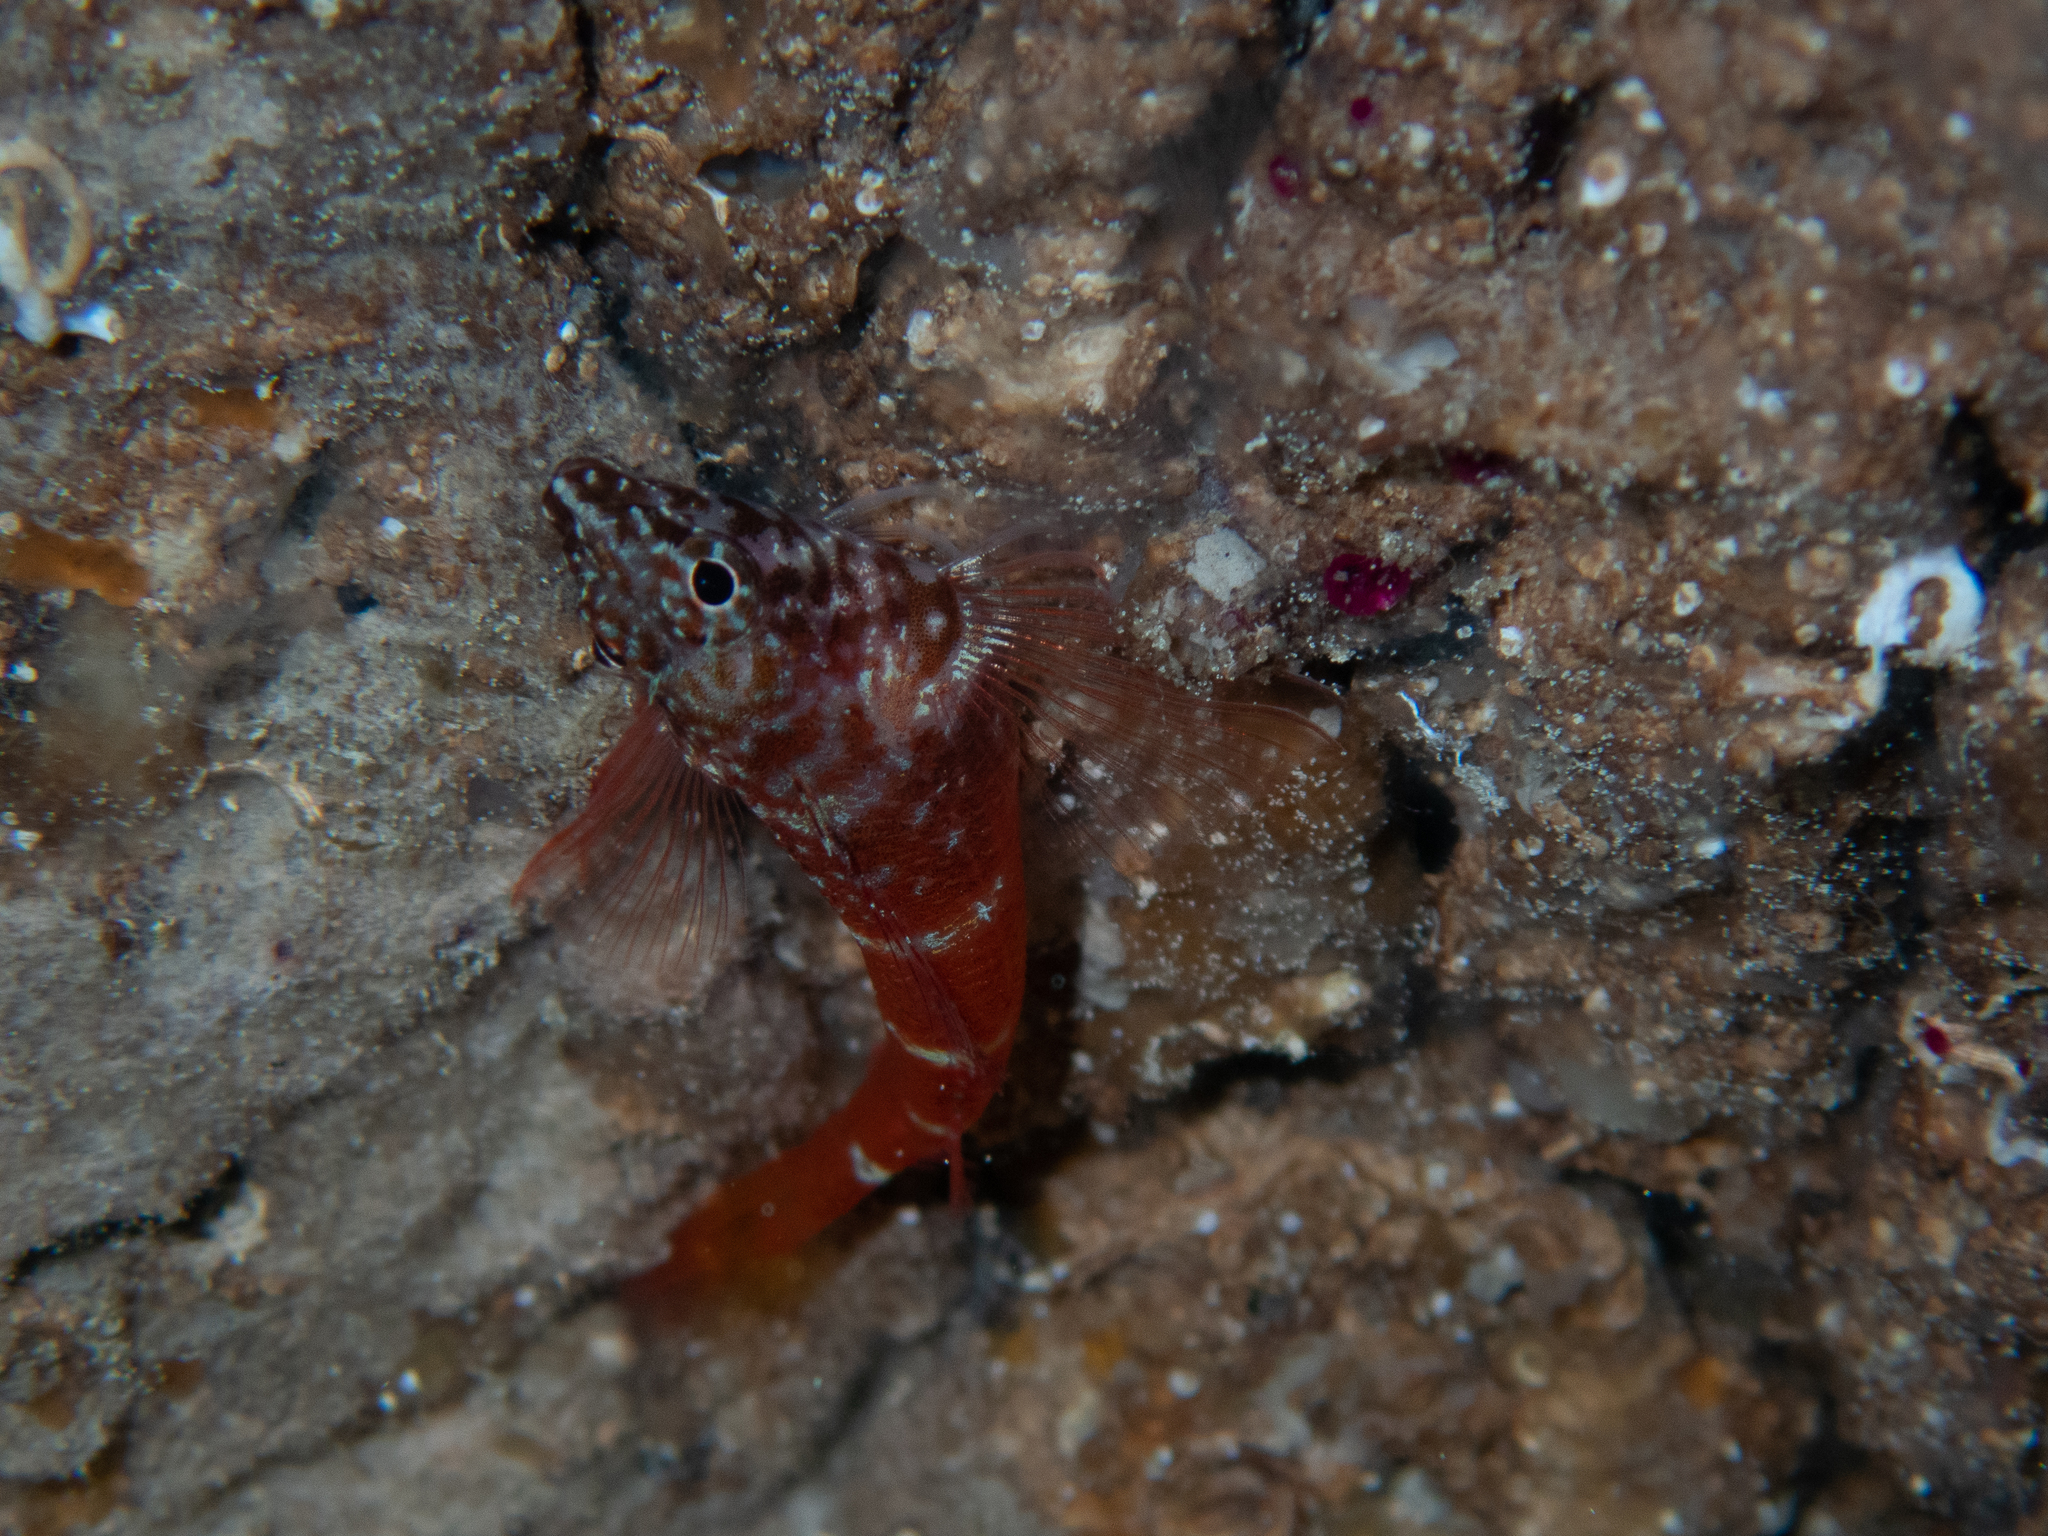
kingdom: Animalia
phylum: Chordata
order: Perciformes
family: Tripterygiidae
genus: Tripterygion
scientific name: Tripterygion melanurum
